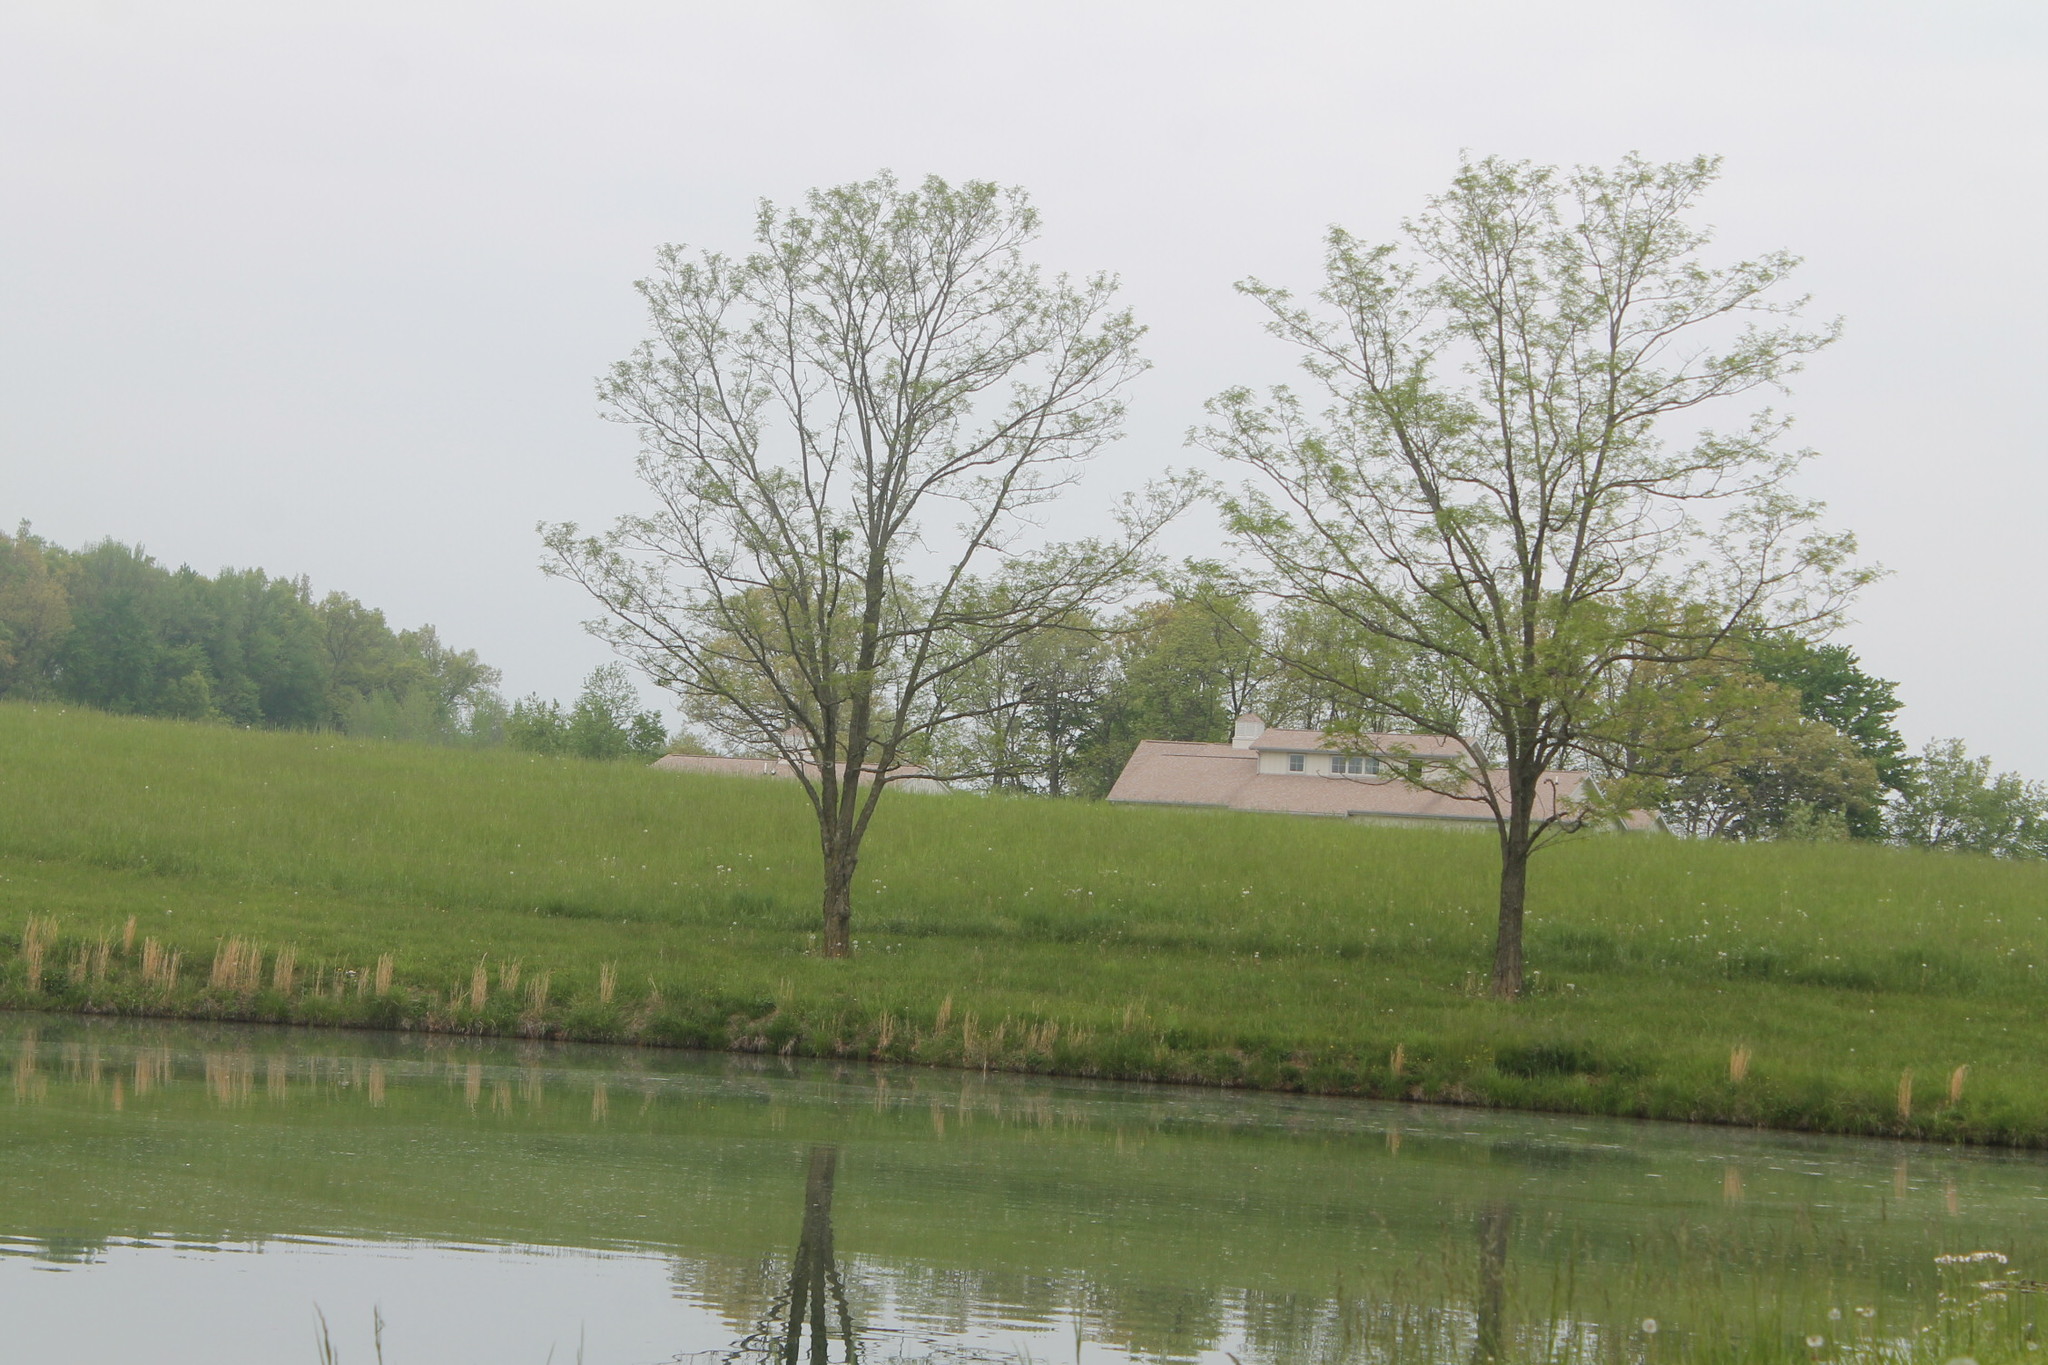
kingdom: Animalia
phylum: Chordata
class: Aves
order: Pelecaniformes
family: Ardeidae
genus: Butorides
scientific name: Butorides virescens
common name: Green heron
